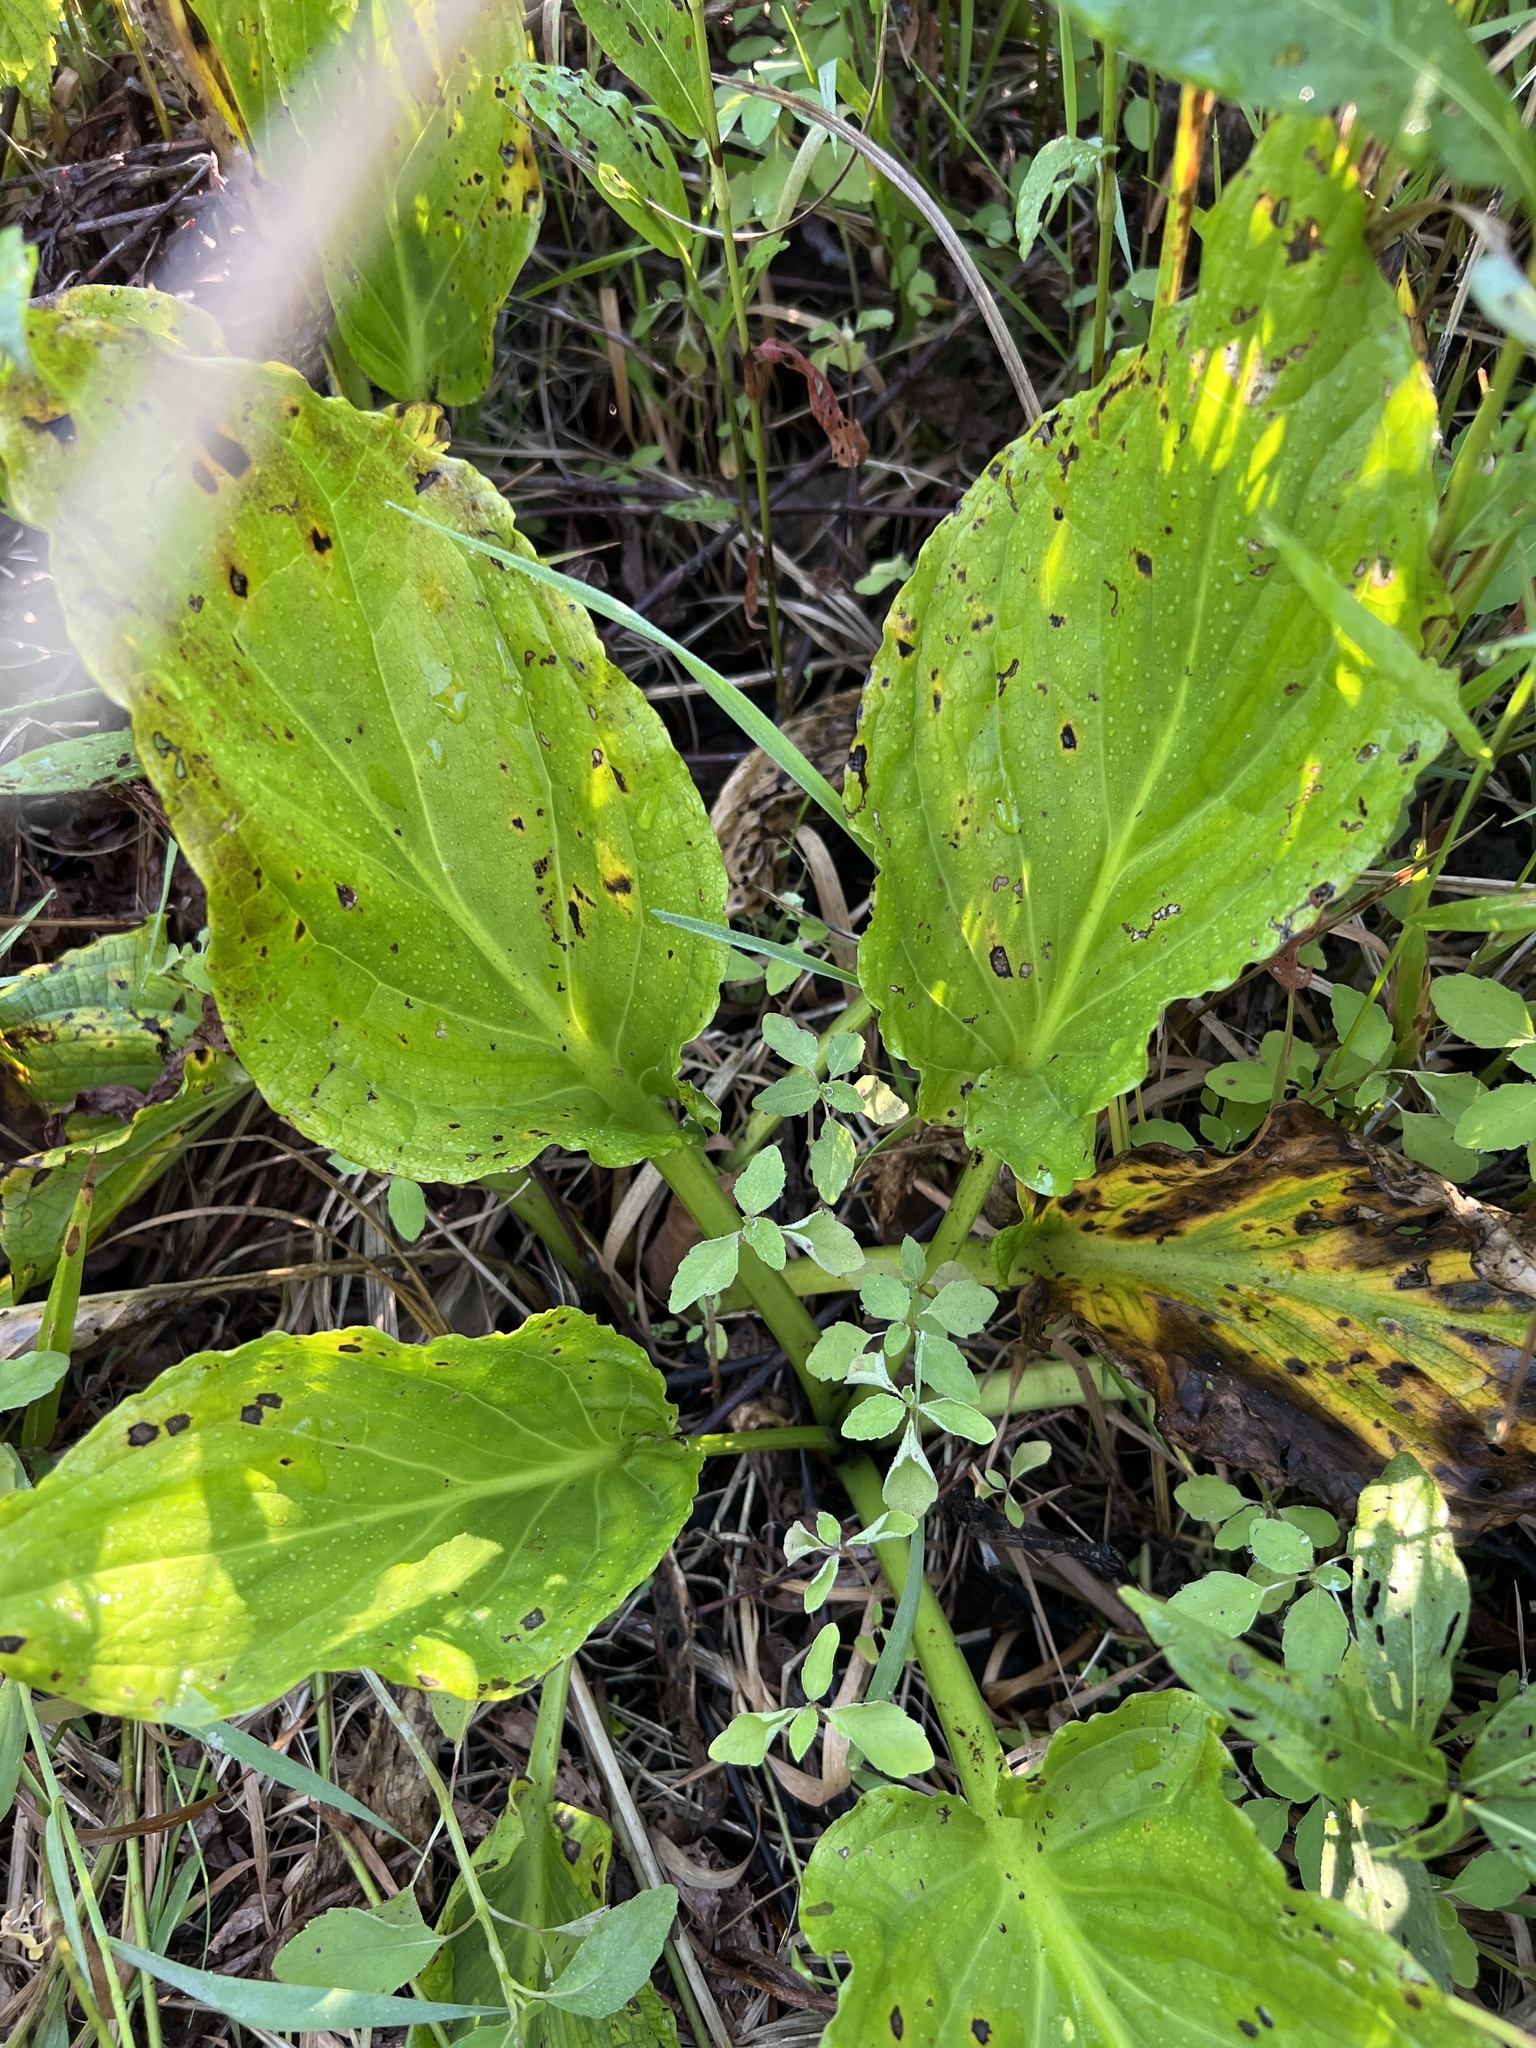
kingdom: Plantae
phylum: Tracheophyta
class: Liliopsida
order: Alismatales
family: Araceae
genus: Symplocarpus
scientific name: Symplocarpus foetidus
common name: Eastern skunk cabbage
